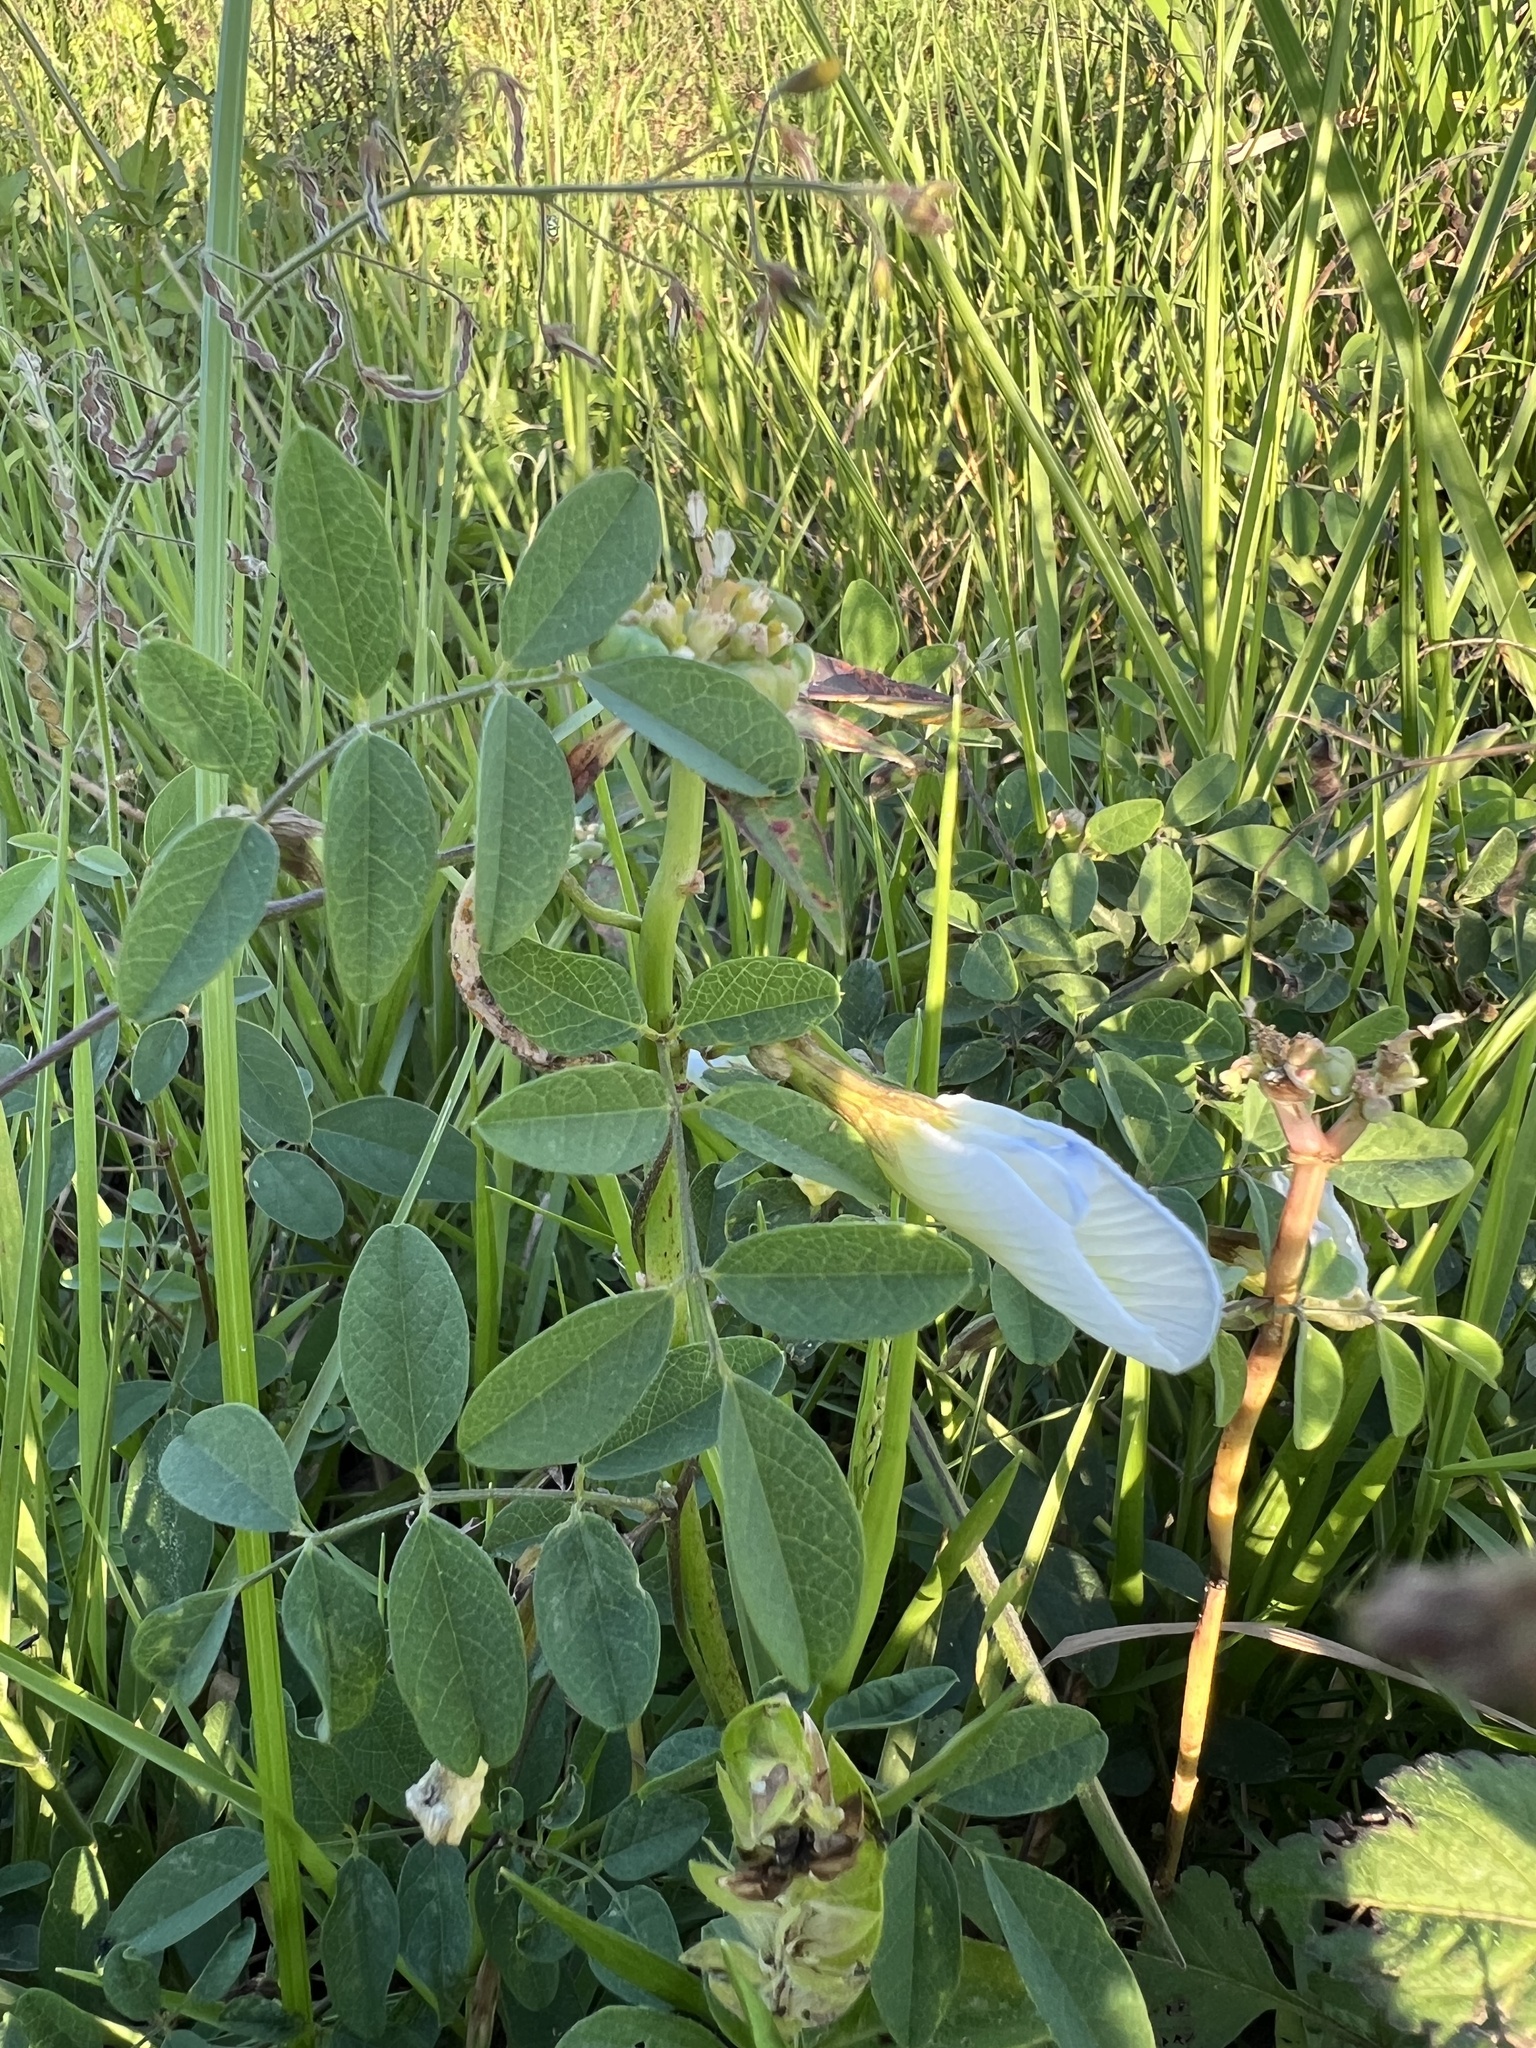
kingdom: Plantae
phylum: Tracheophyta
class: Magnoliopsida
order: Fabales
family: Fabaceae
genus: Clitoria
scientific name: Clitoria ternatea
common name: Asian pigeonwings
